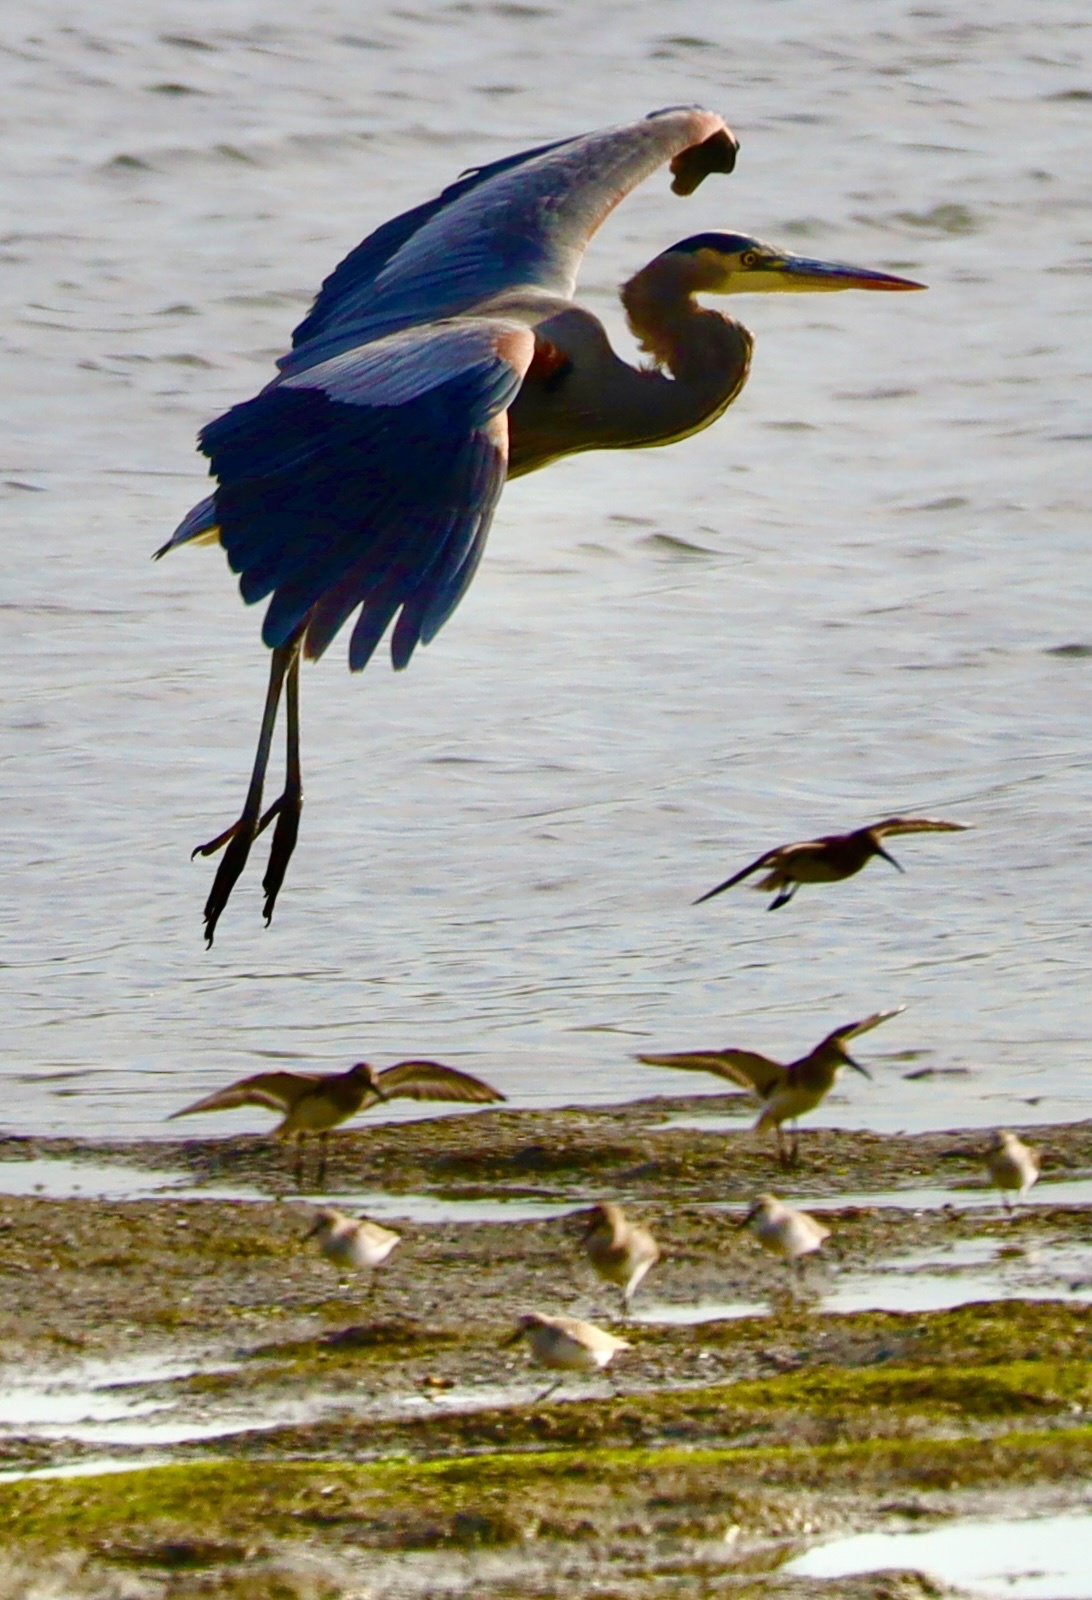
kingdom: Animalia
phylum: Chordata
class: Aves
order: Pelecaniformes
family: Ardeidae
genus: Ardea
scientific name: Ardea herodias
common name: Great blue heron
